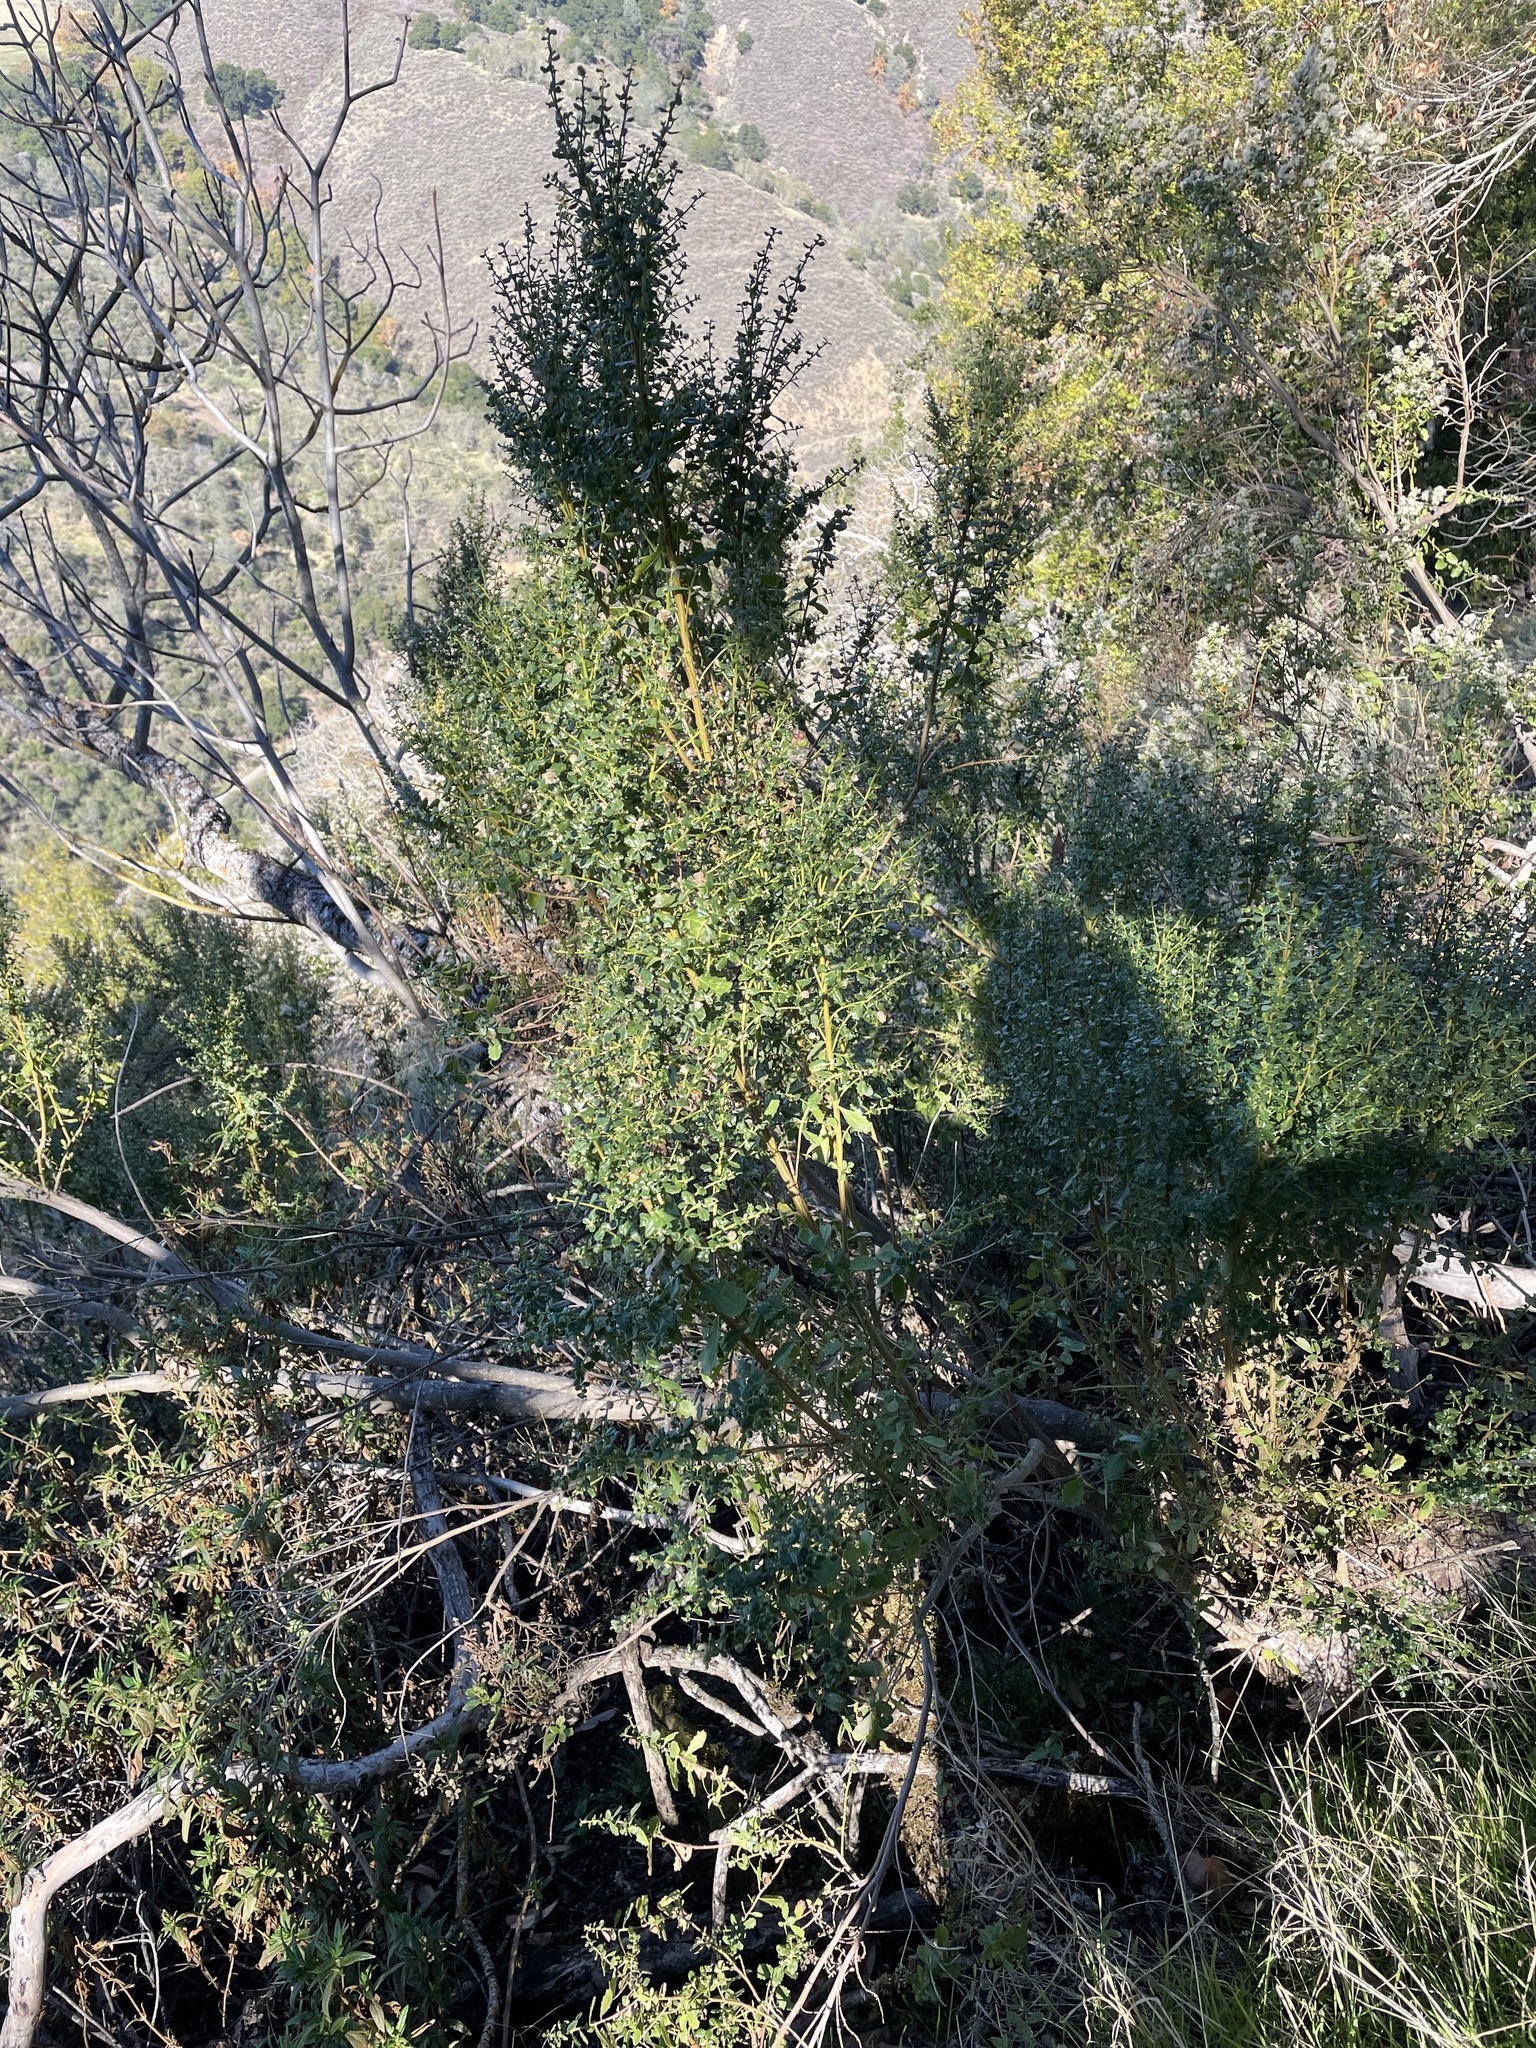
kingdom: Plantae
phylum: Tracheophyta
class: Magnoliopsida
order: Asterales
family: Asteraceae
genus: Baccharis
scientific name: Baccharis pilularis
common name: Coyotebrush
